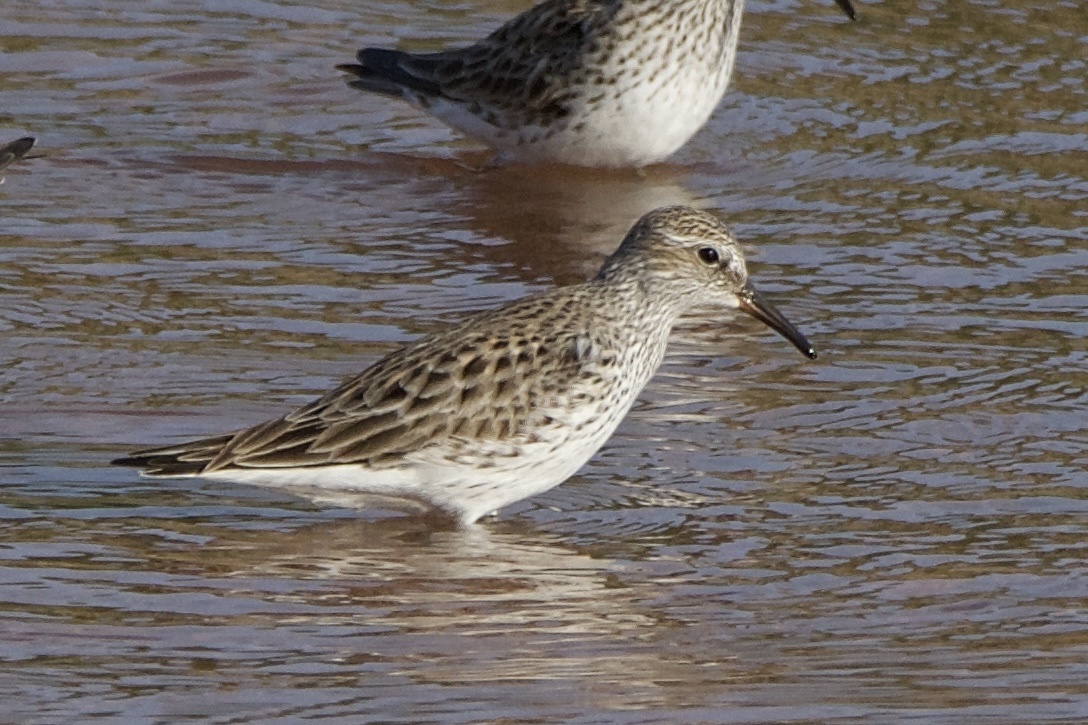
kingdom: Animalia
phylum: Chordata
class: Aves
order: Charadriiformes
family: Scolopacidae
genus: Calidris
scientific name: Calidris fuscicollis
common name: White-rumped sandpiper
